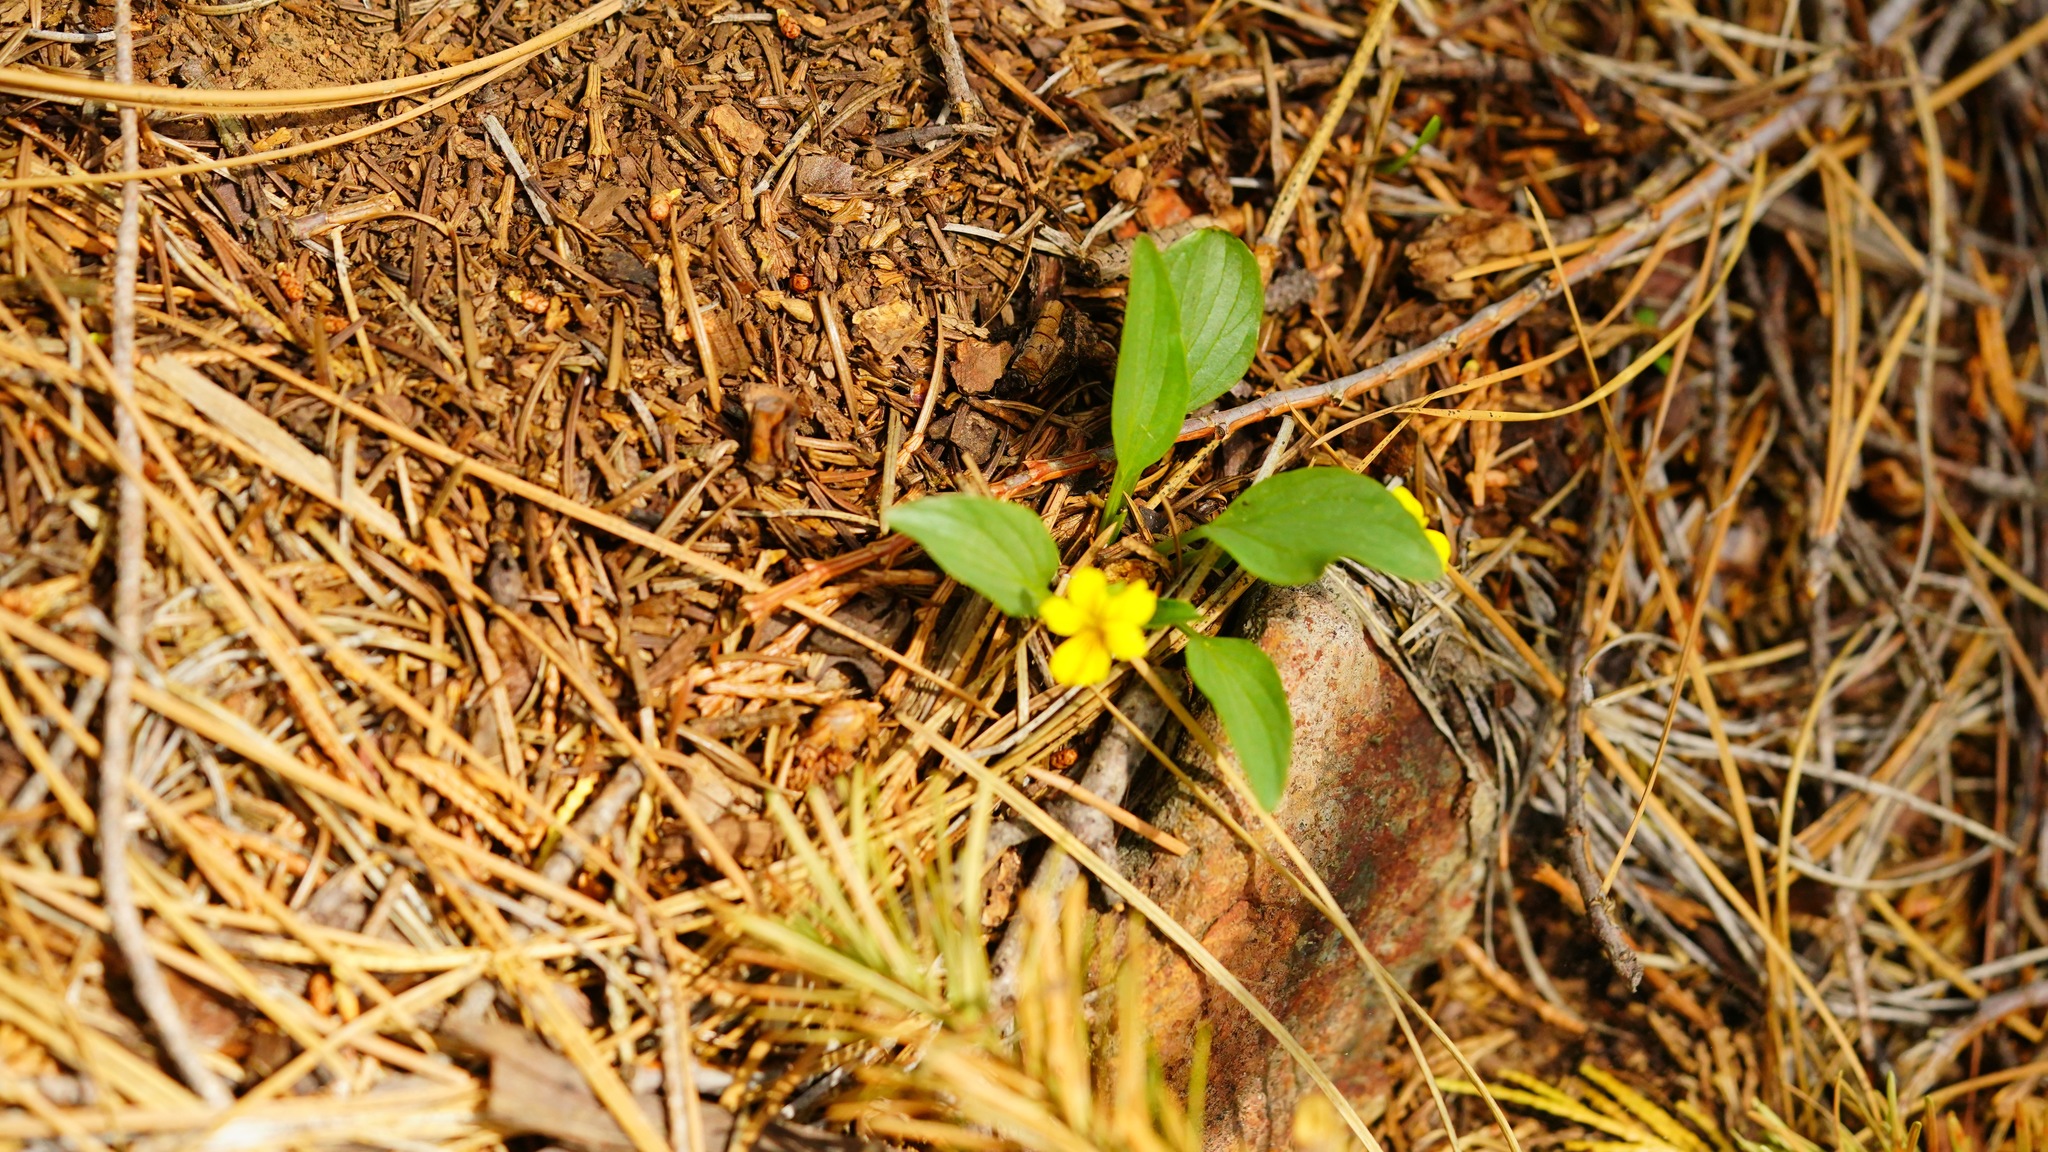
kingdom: Plantae
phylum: Tracheophyta
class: Magnoliopsida
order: Malpighiales
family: Violaceae
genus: Viola
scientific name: Viola bakeri
